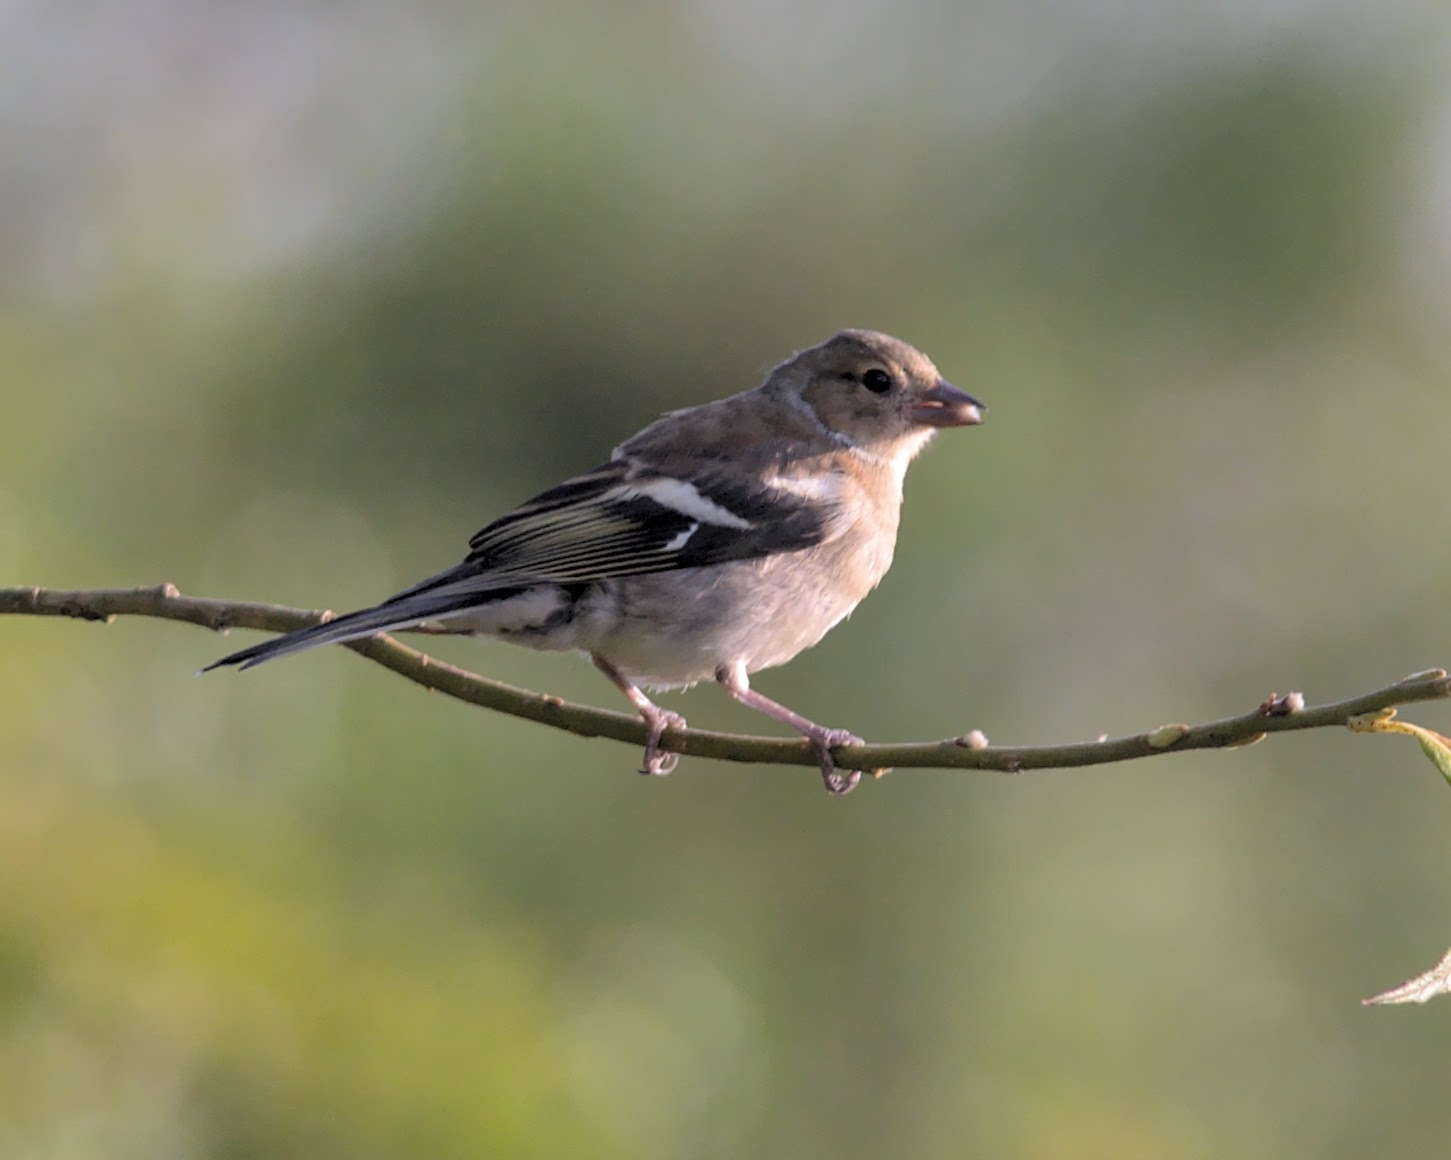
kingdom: Animalia
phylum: Chordata
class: Aves
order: Passeriformes
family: Fringillidae
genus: Fringilla
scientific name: Fringilla coelebs
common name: Common chaffinch
